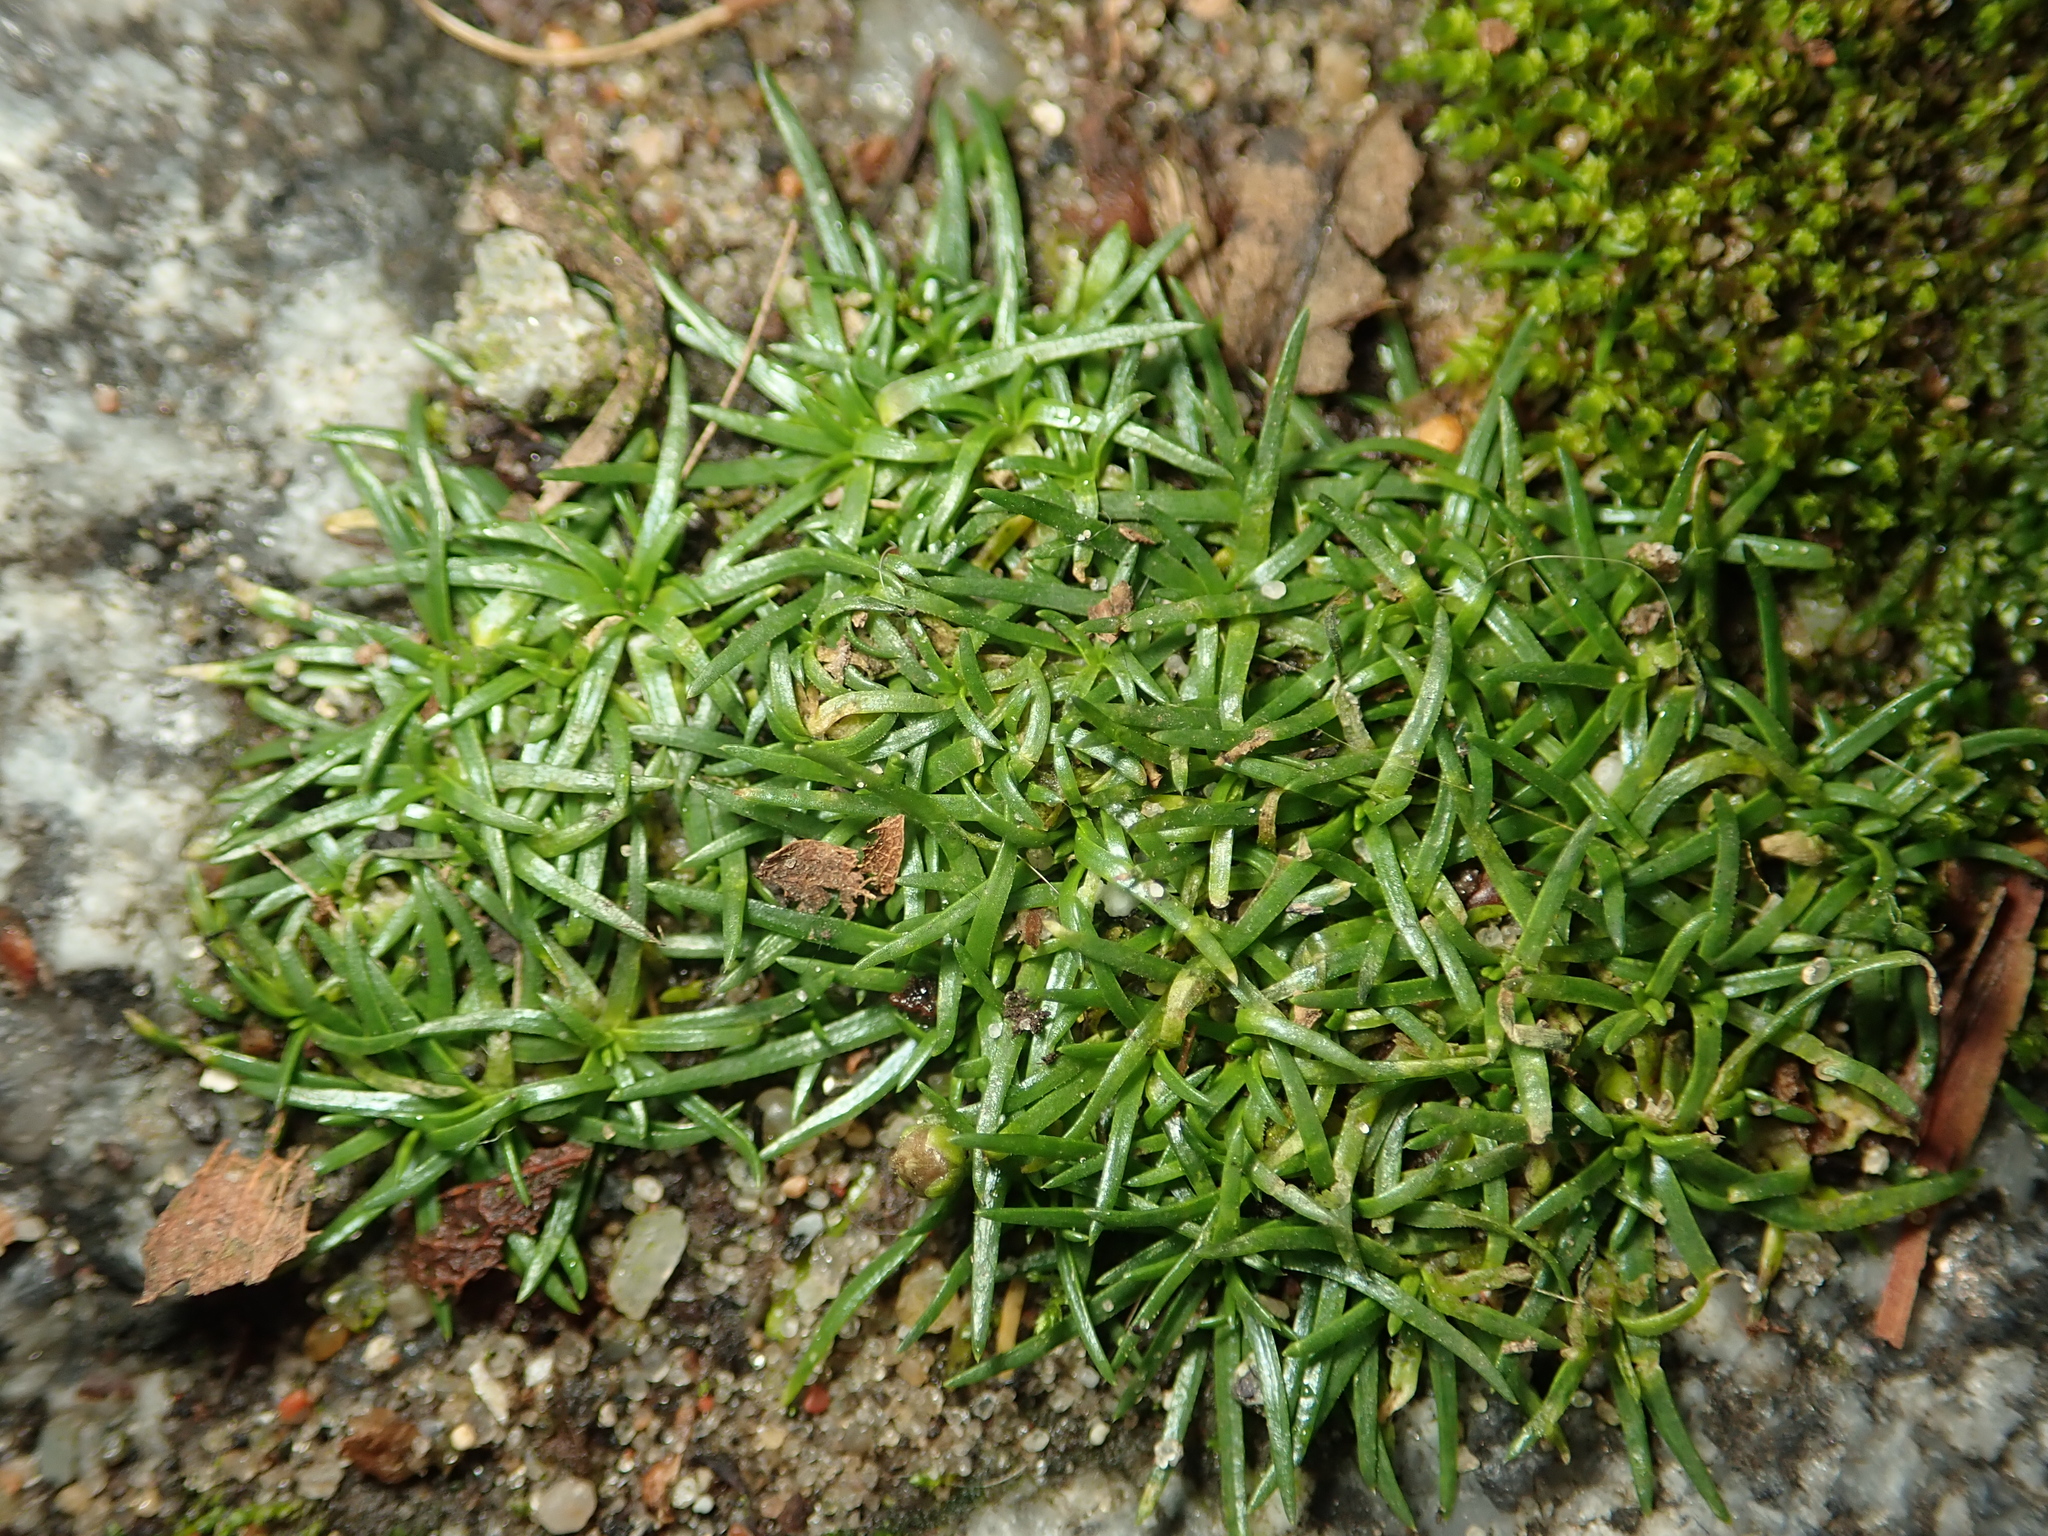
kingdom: Plantae
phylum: Tracheophyta
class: Magnoliopsida
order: Caryophyllales
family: Caryophyllaceae
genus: Sagina
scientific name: Sagina procumbens
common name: Procumbent pearlwort
